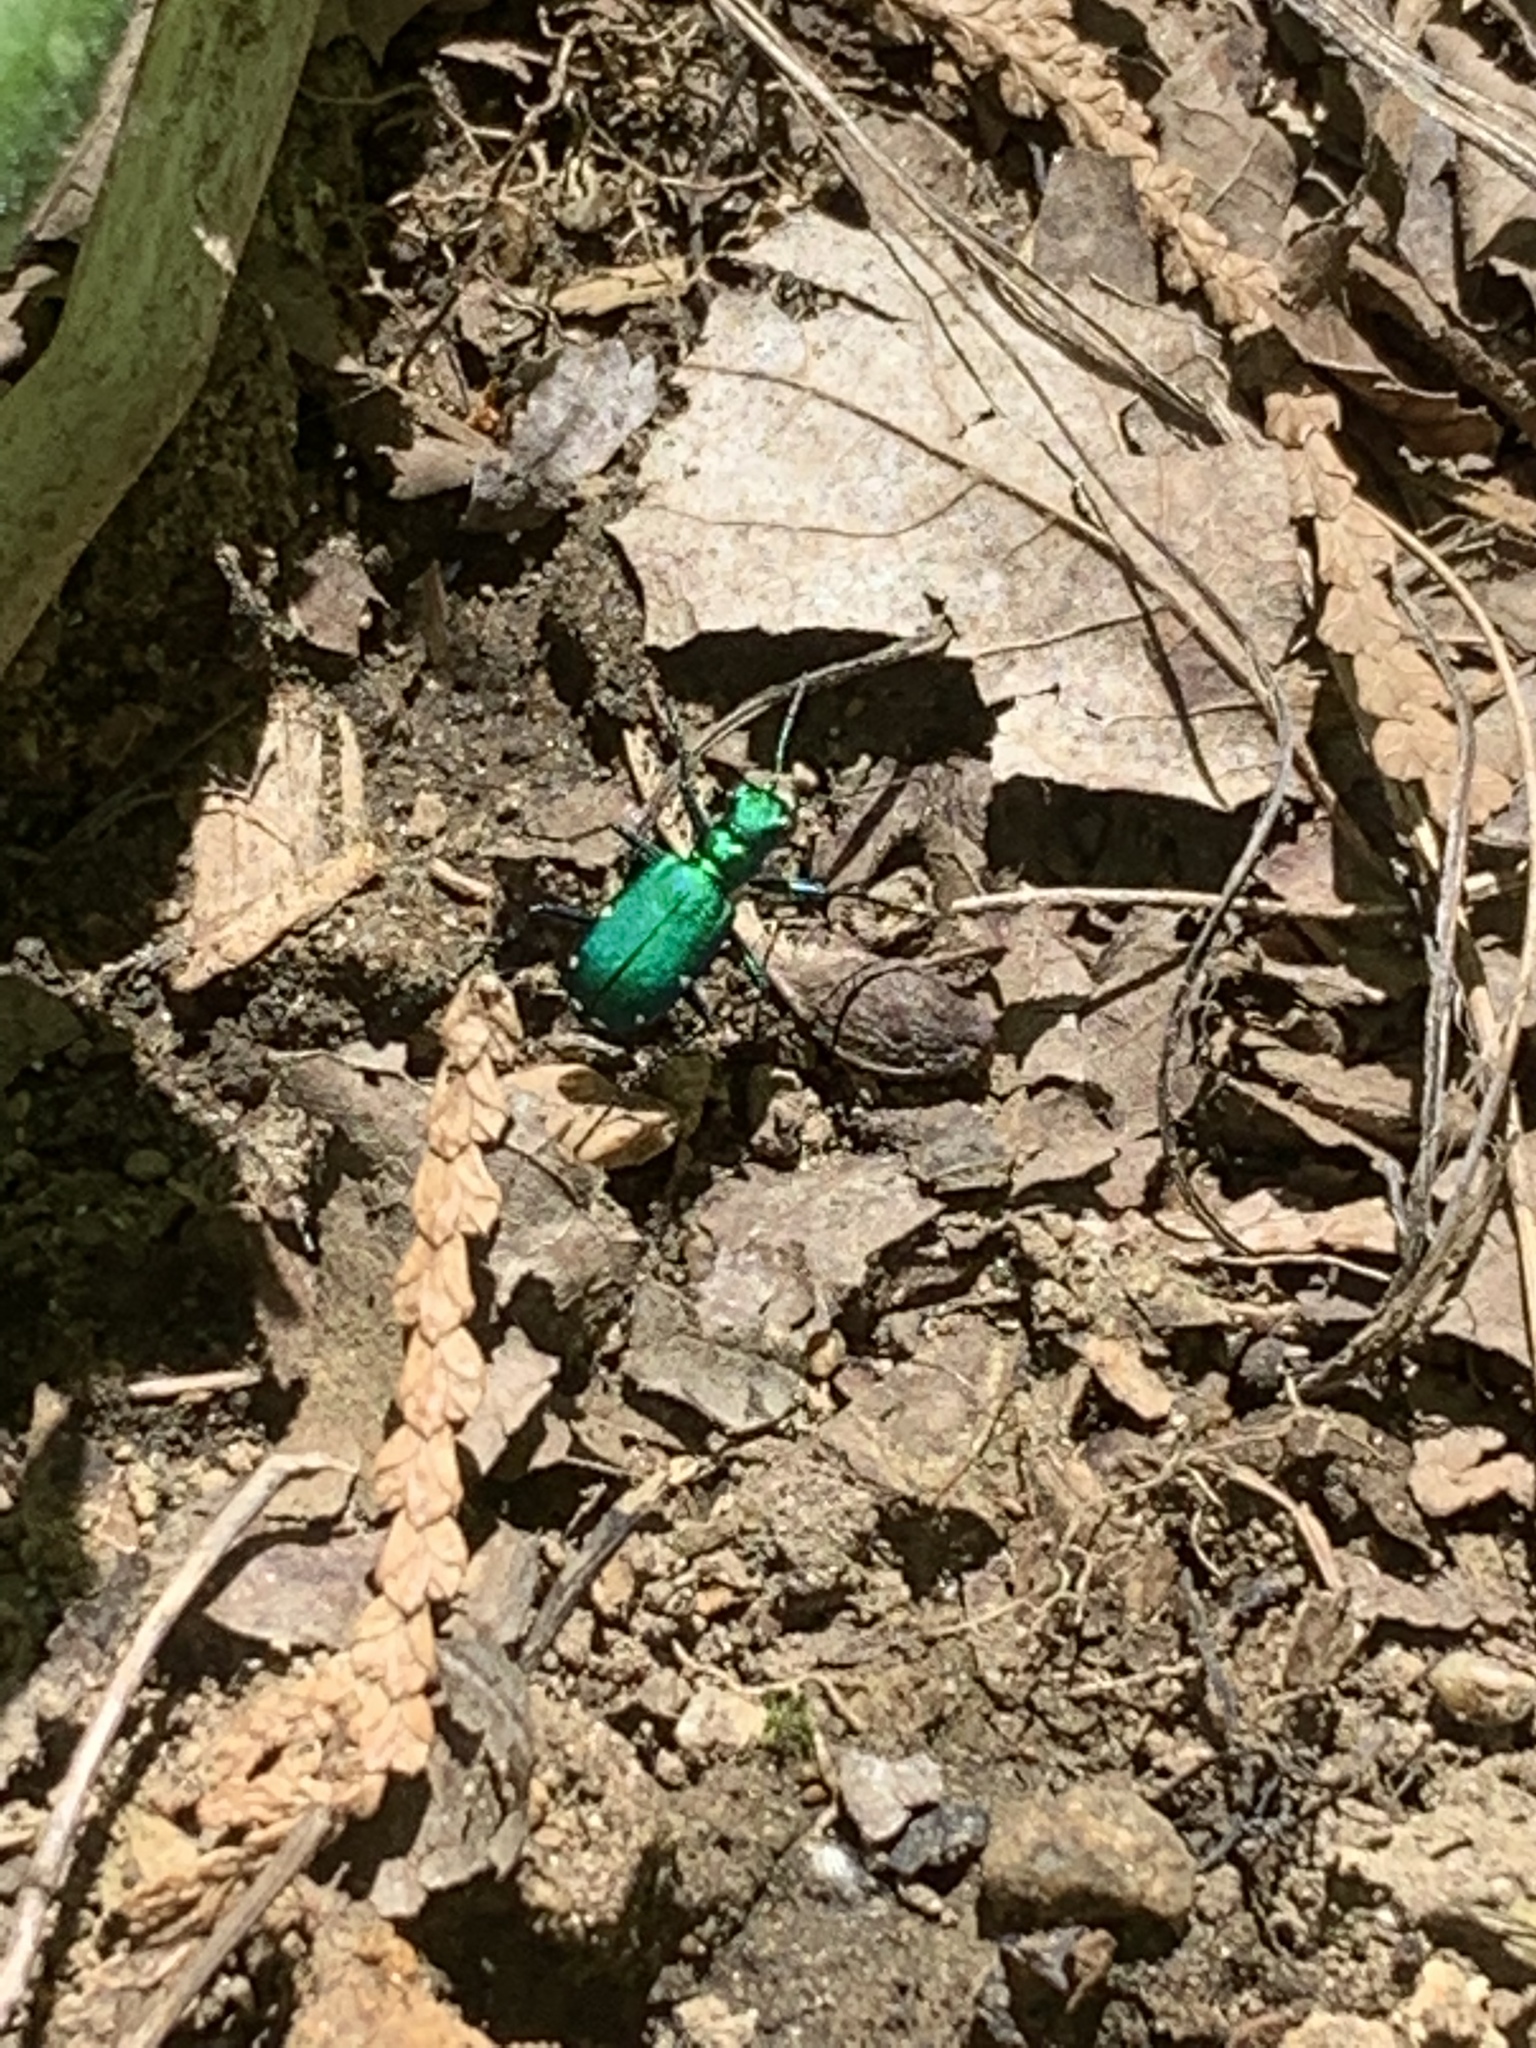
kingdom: Animalia
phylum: Arthropoda
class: Insecta
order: Coleoptera
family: Carabidae
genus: Cicindela
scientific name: Cicindela sexguttata
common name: Six-spotted tiger beetle
